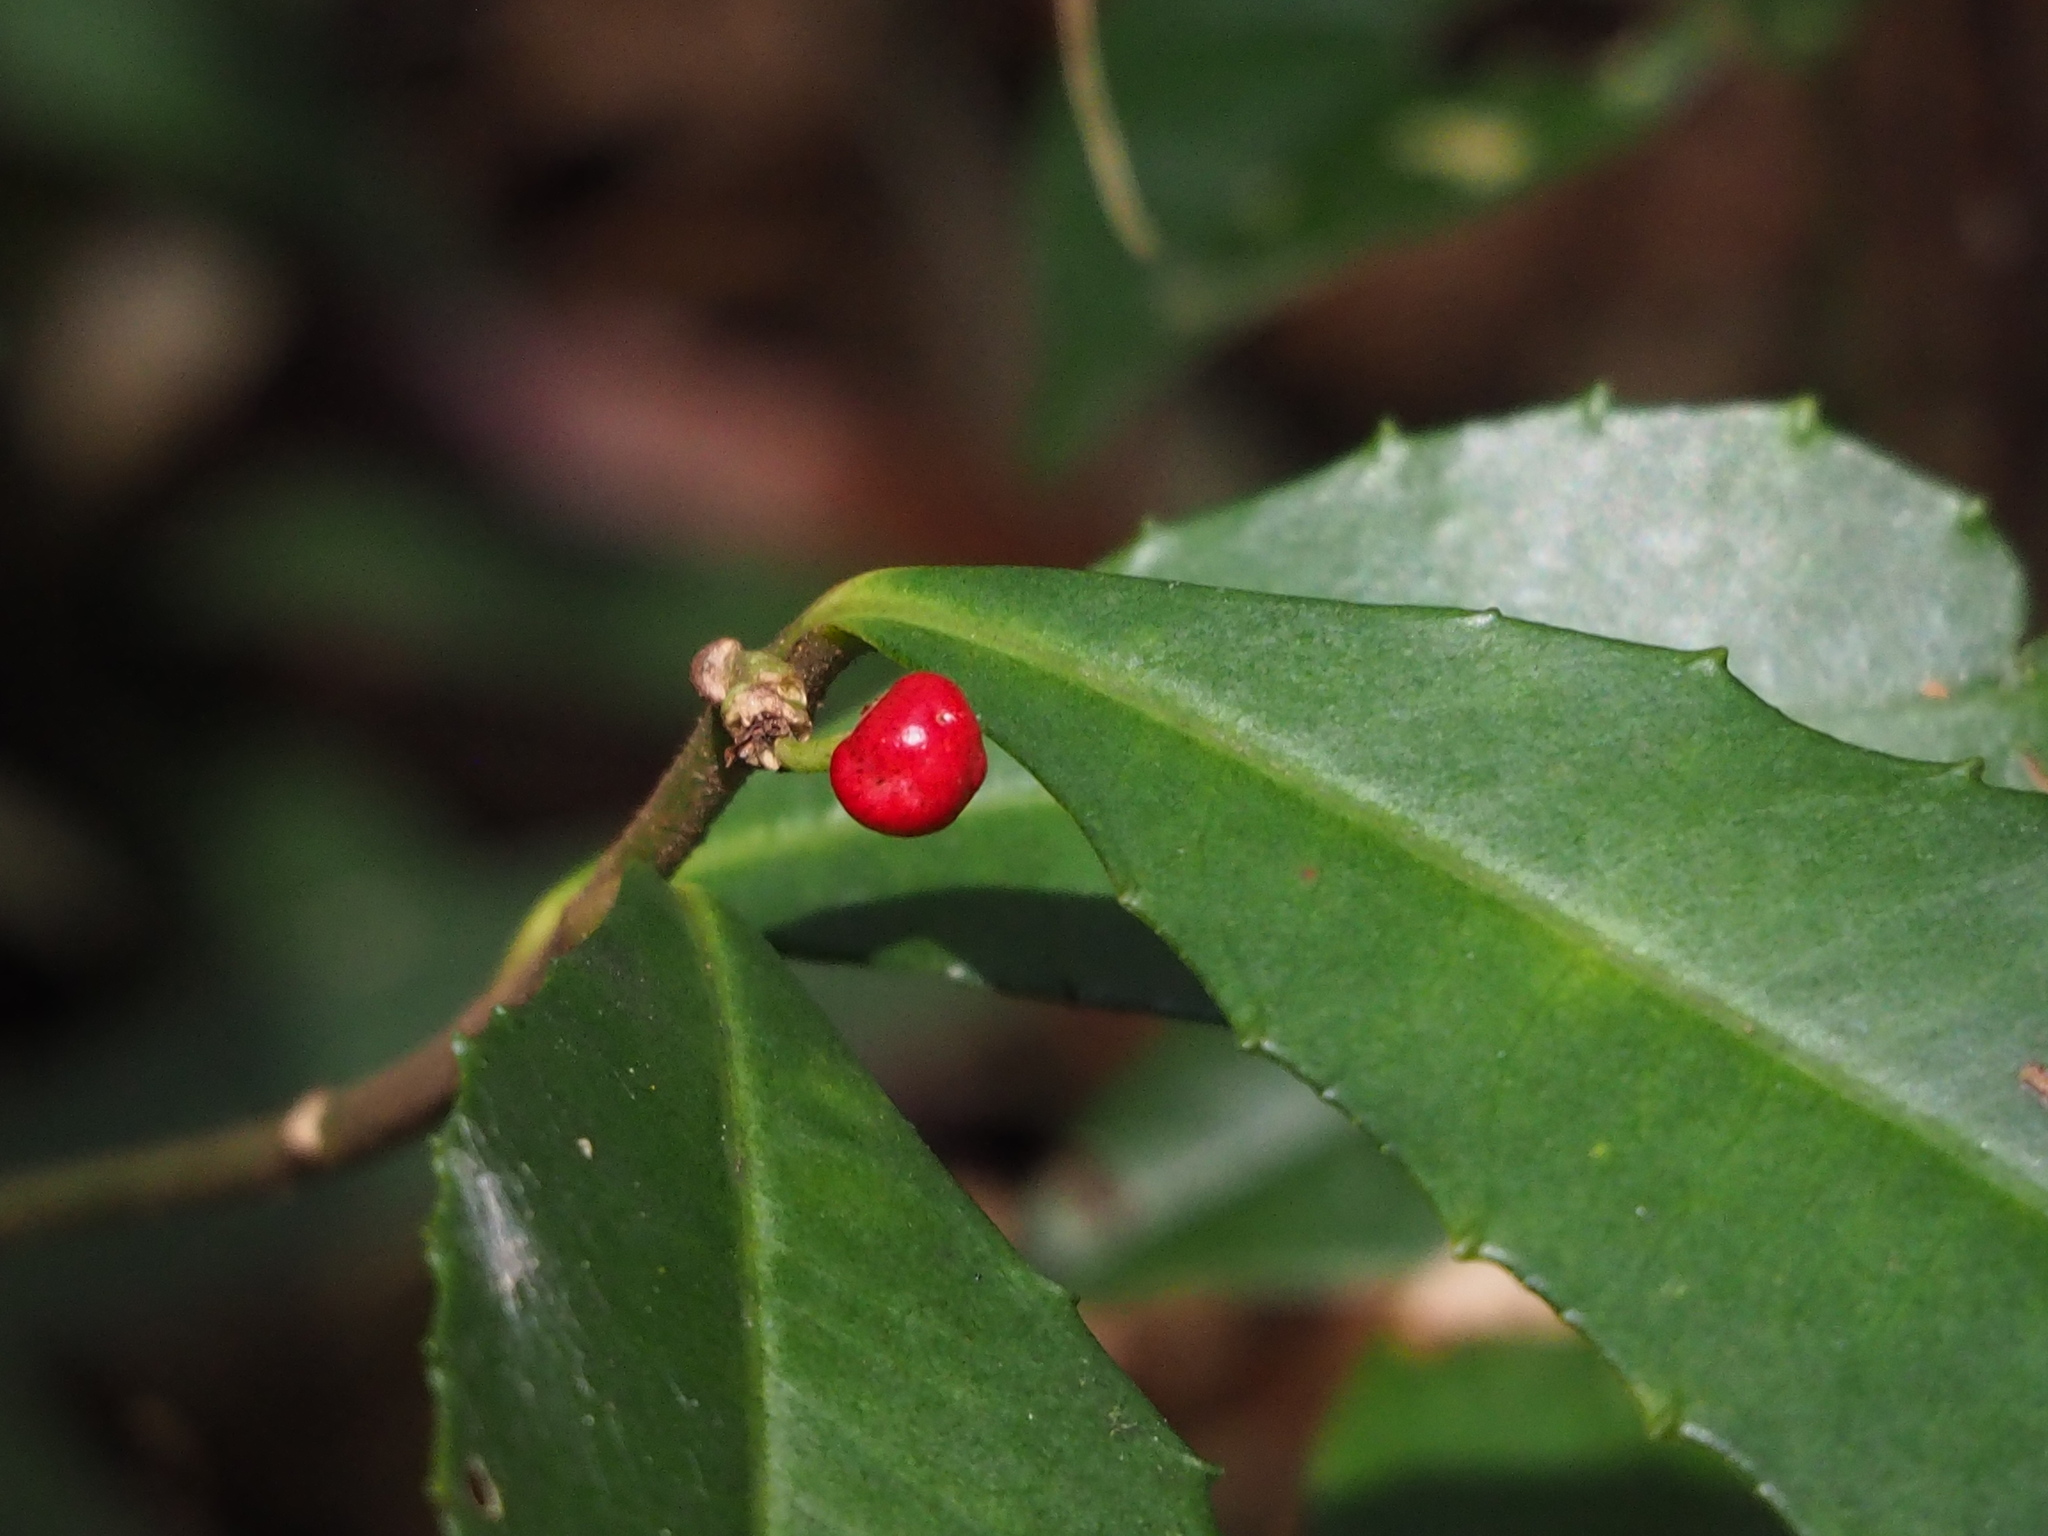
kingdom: Plantae
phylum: Tracheophyta
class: Magnoliopsida
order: Ericales
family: Primulaceae
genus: Ardisia
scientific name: Ardisia cornudentata
